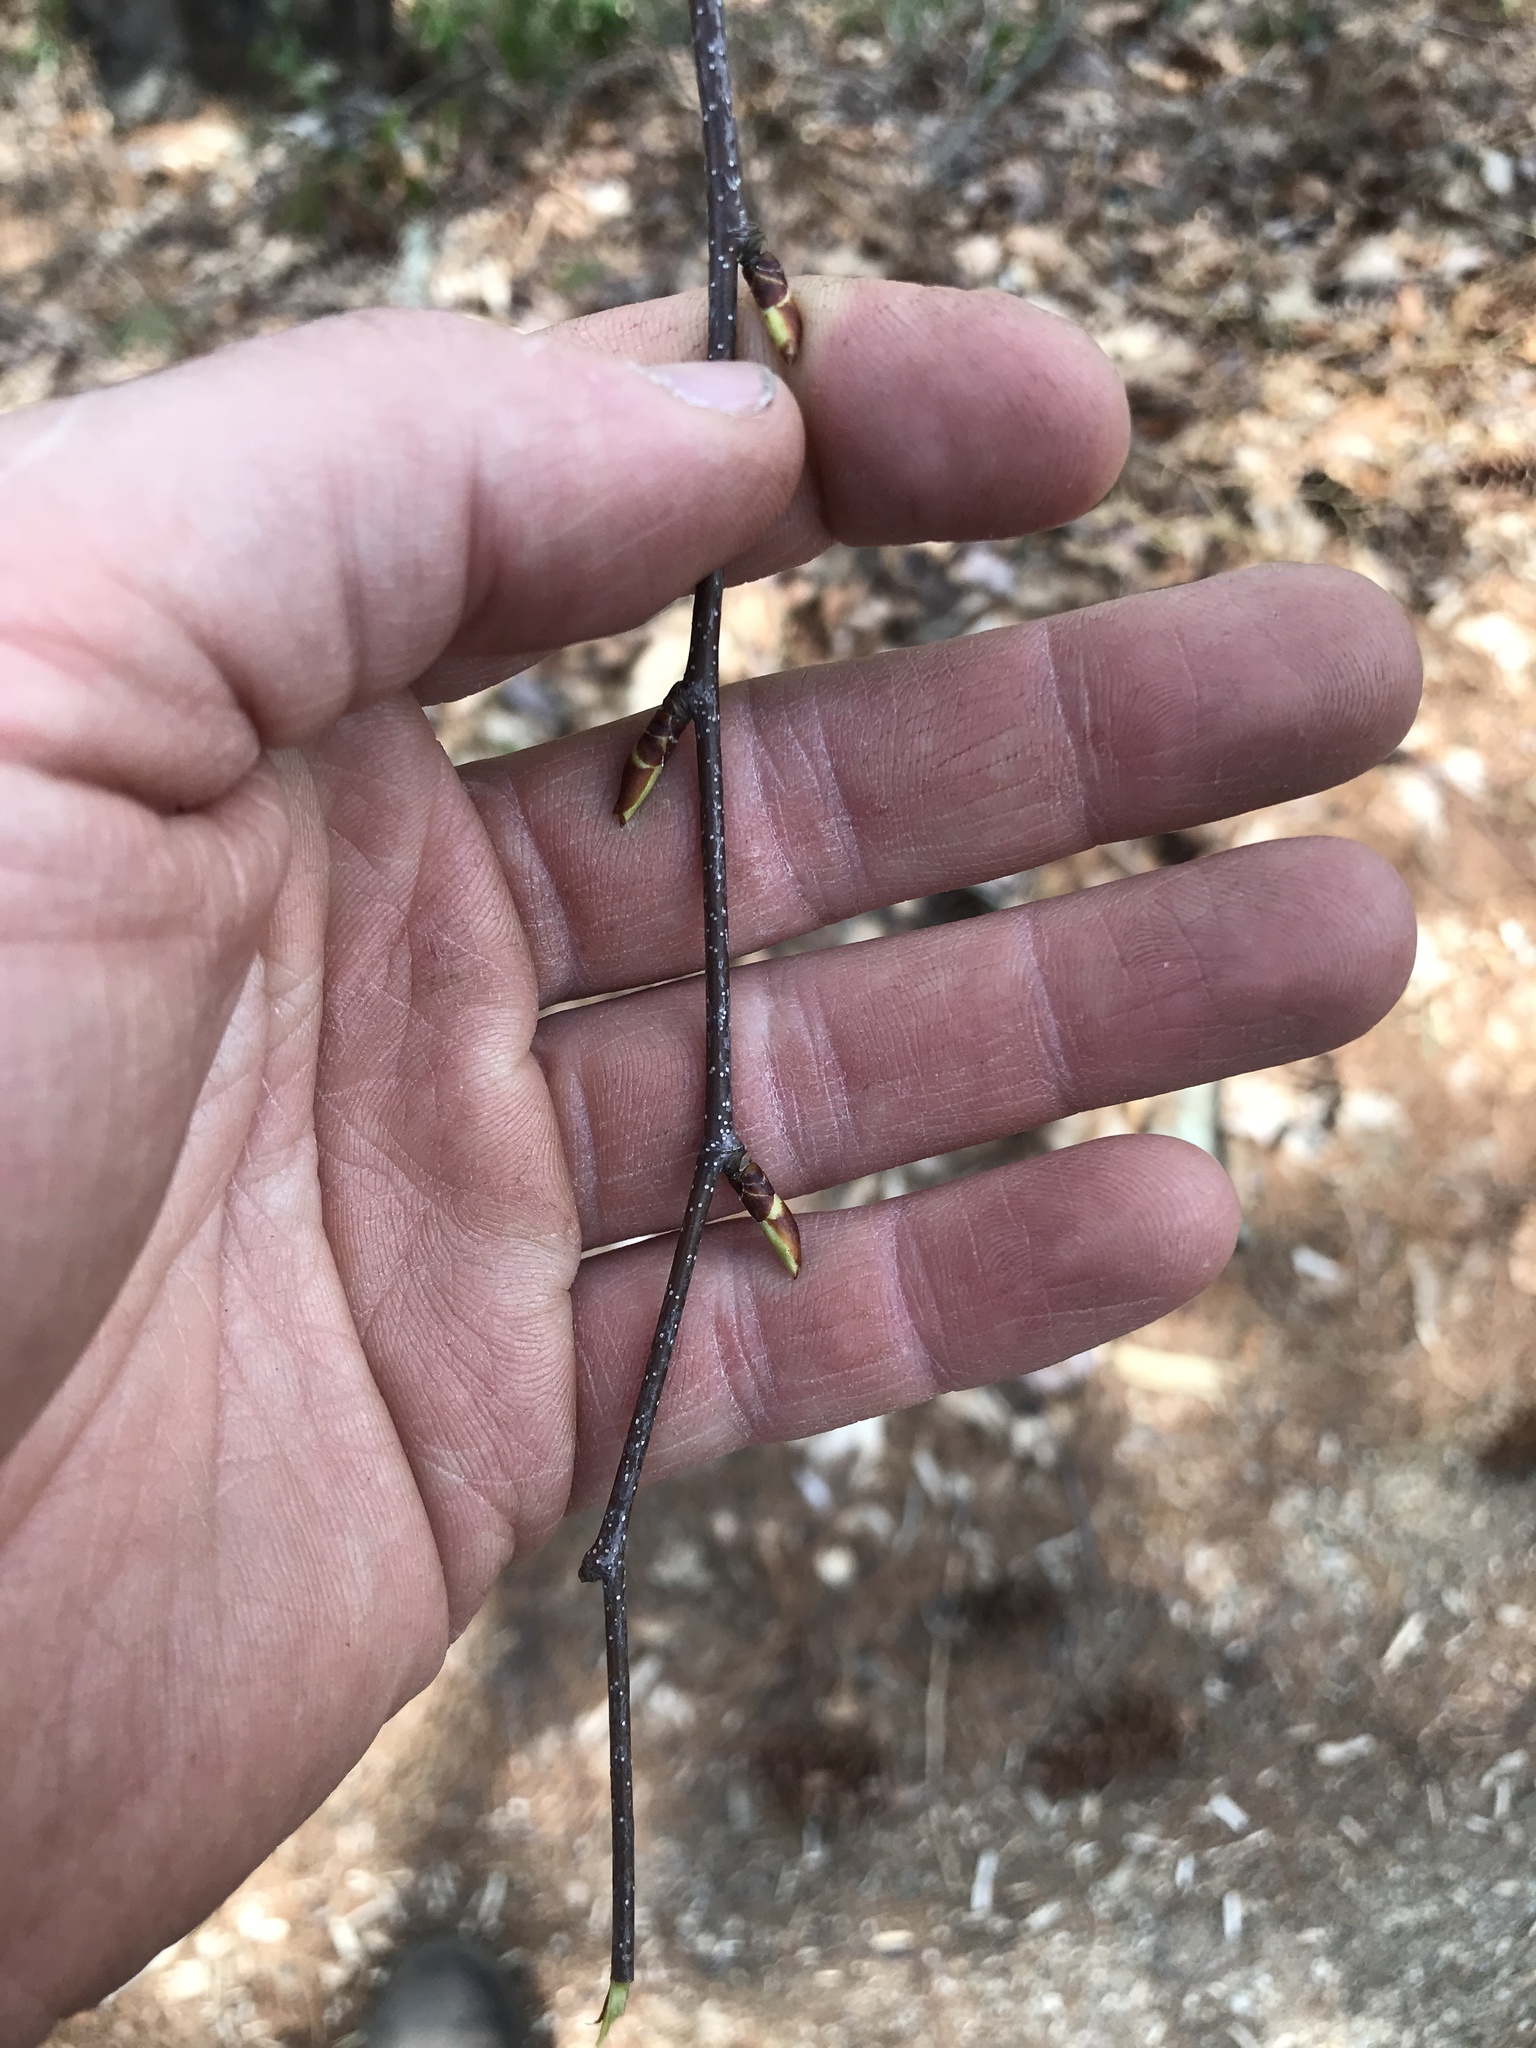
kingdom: Plantae
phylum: Tracheophyta
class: Magnoliopsida
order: Fagales
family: Betulaceae
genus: Betula
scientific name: Betula lenta
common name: Black birch
